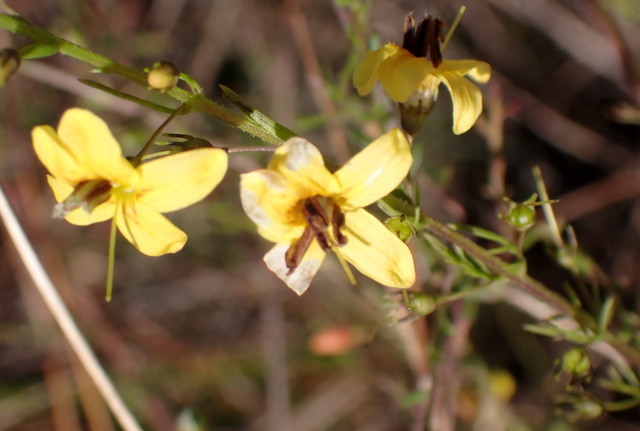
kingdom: Plantae
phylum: Tracheophyta
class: Magnoliopsida
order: Lamiales
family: Orobanchaceae
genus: Seymeria
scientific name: Seymeria cassioides
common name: Yaupon black-senna
